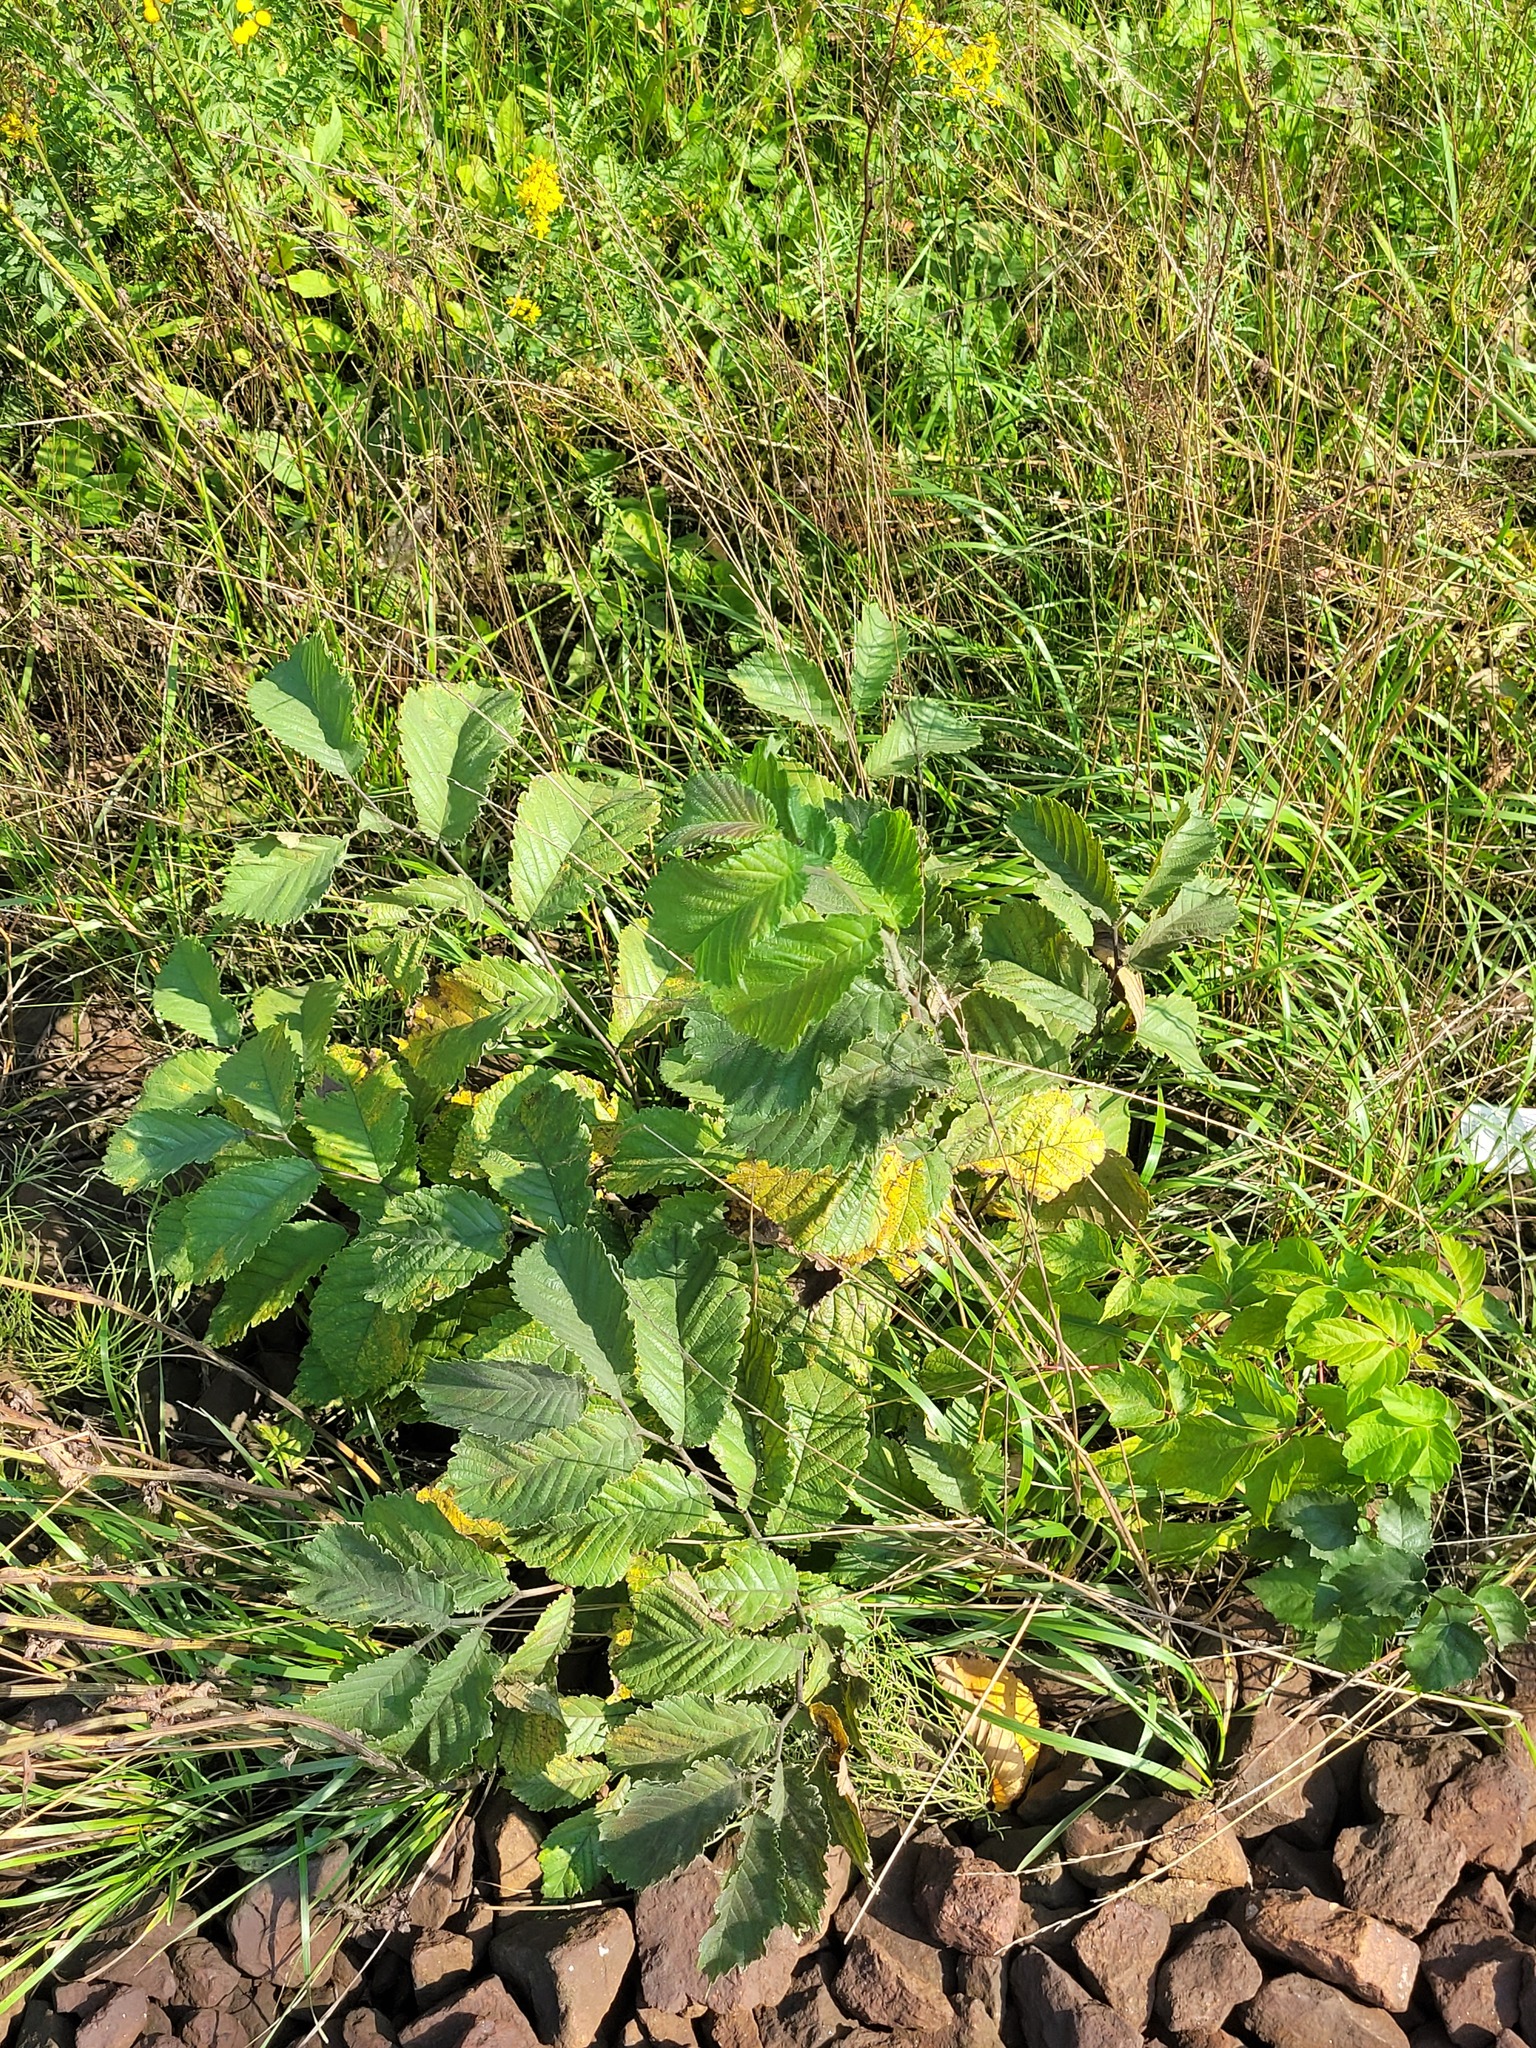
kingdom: Plantae
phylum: Tracheophyta
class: Magnoliopsida
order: Rosales
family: Ulmaceae
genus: Ulmus
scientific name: Ulmus glabra
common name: Wych elm
